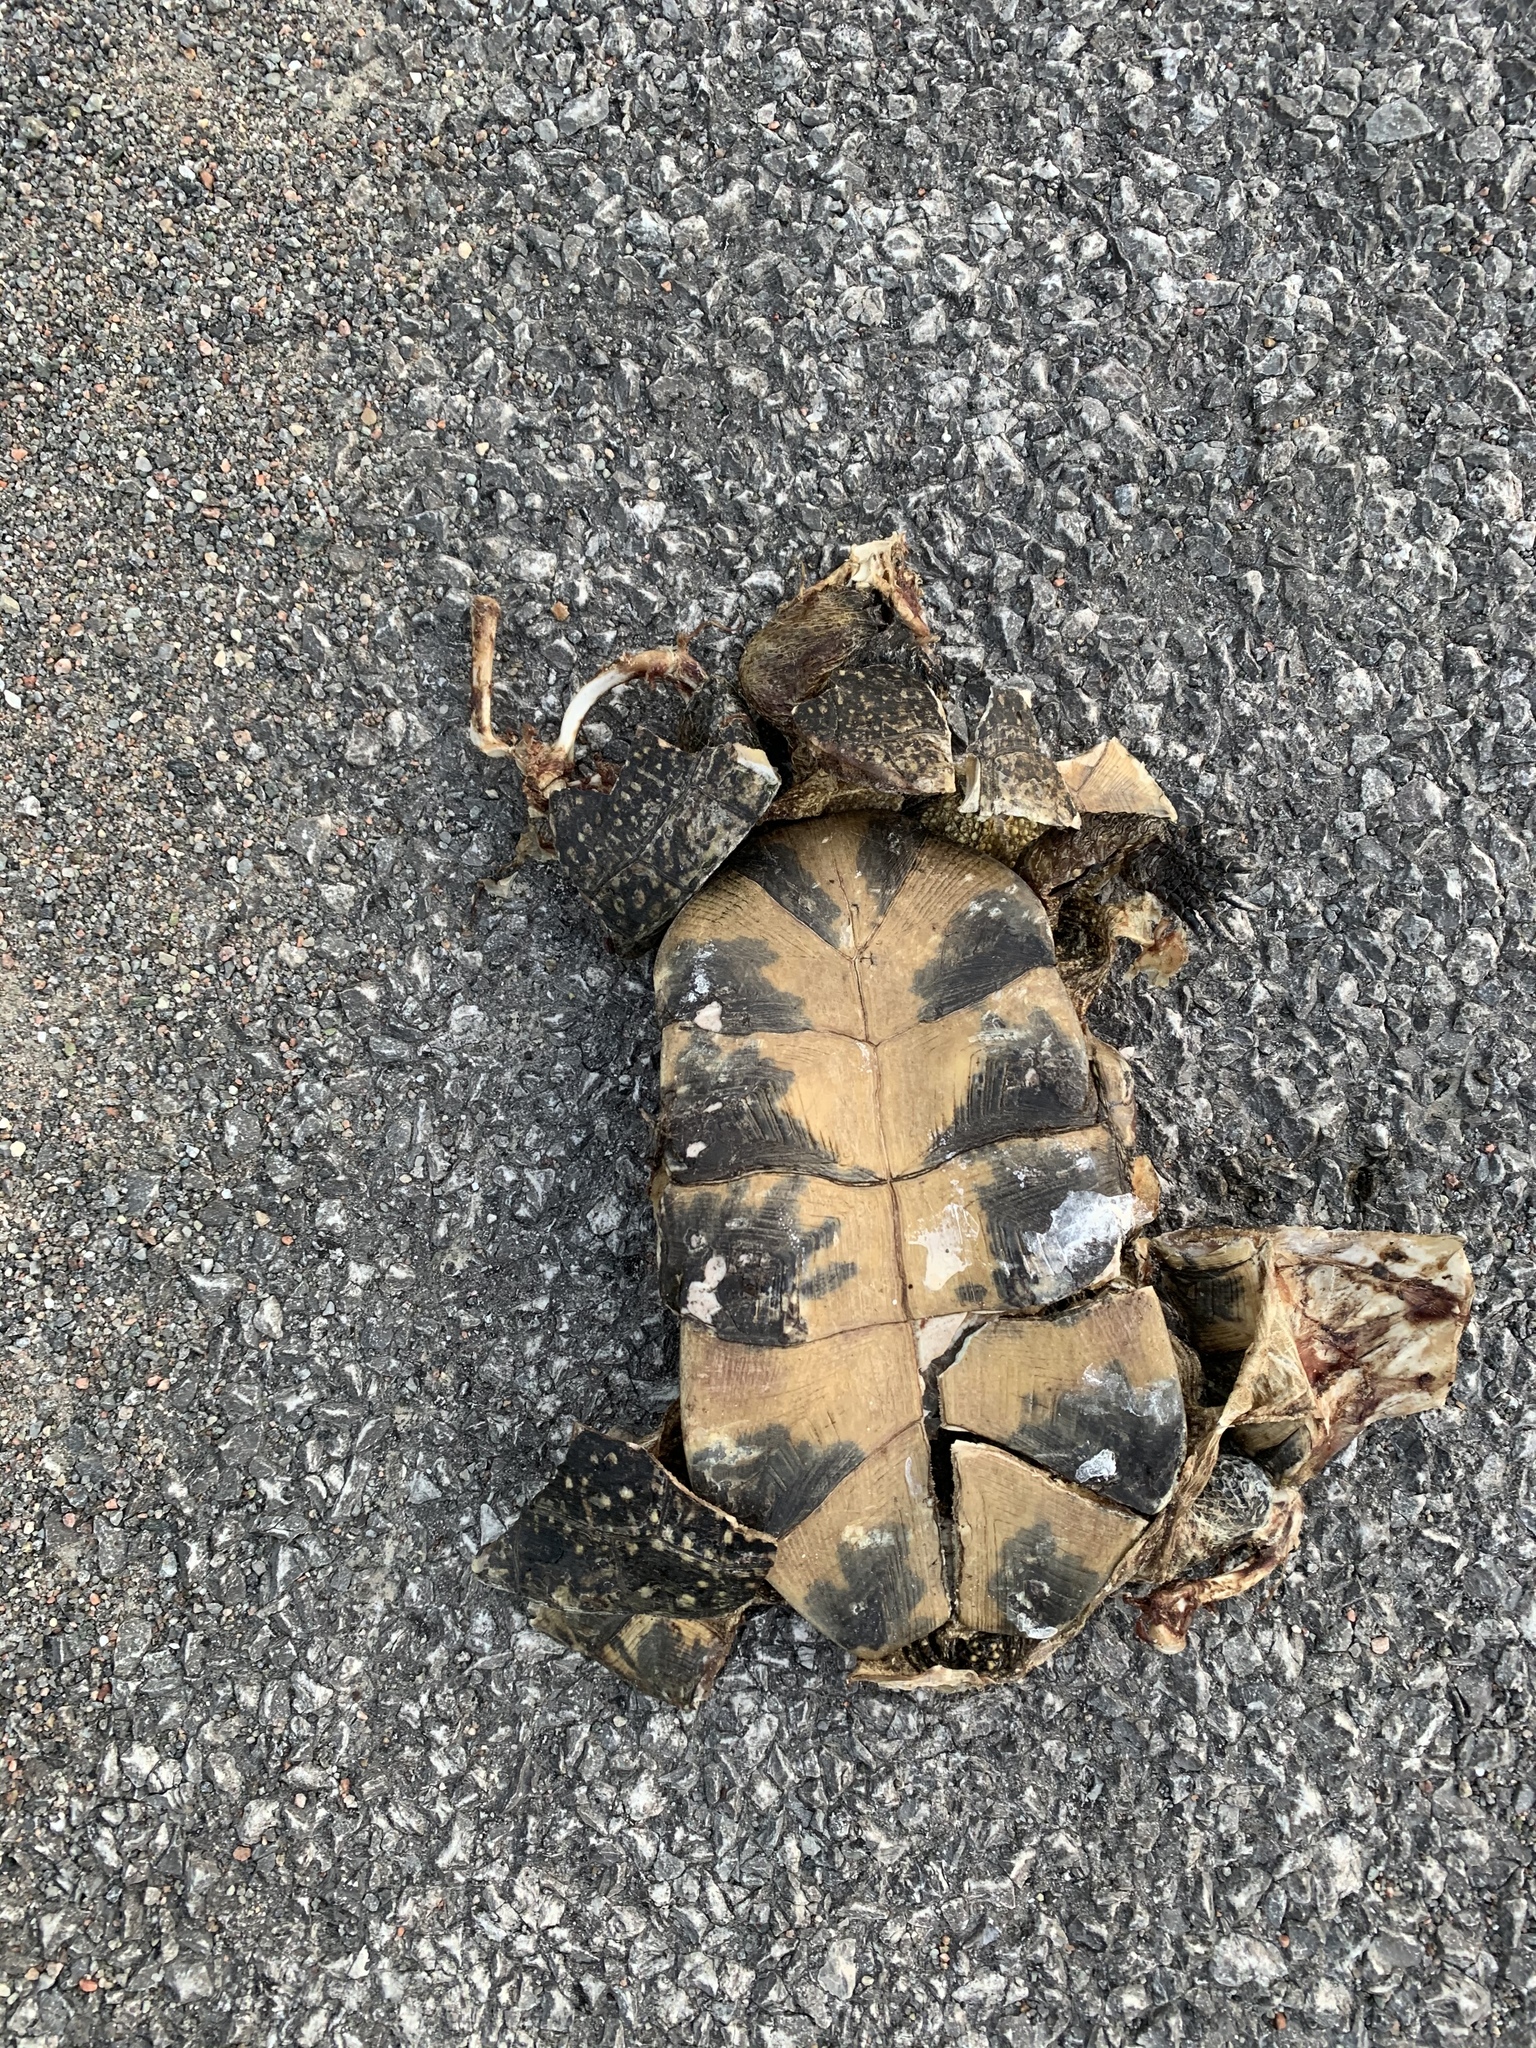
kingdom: Animalia
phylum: Chordata
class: Testudines
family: Emydidae
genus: Emys
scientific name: Emys blandingii
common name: Blanding's turtle
